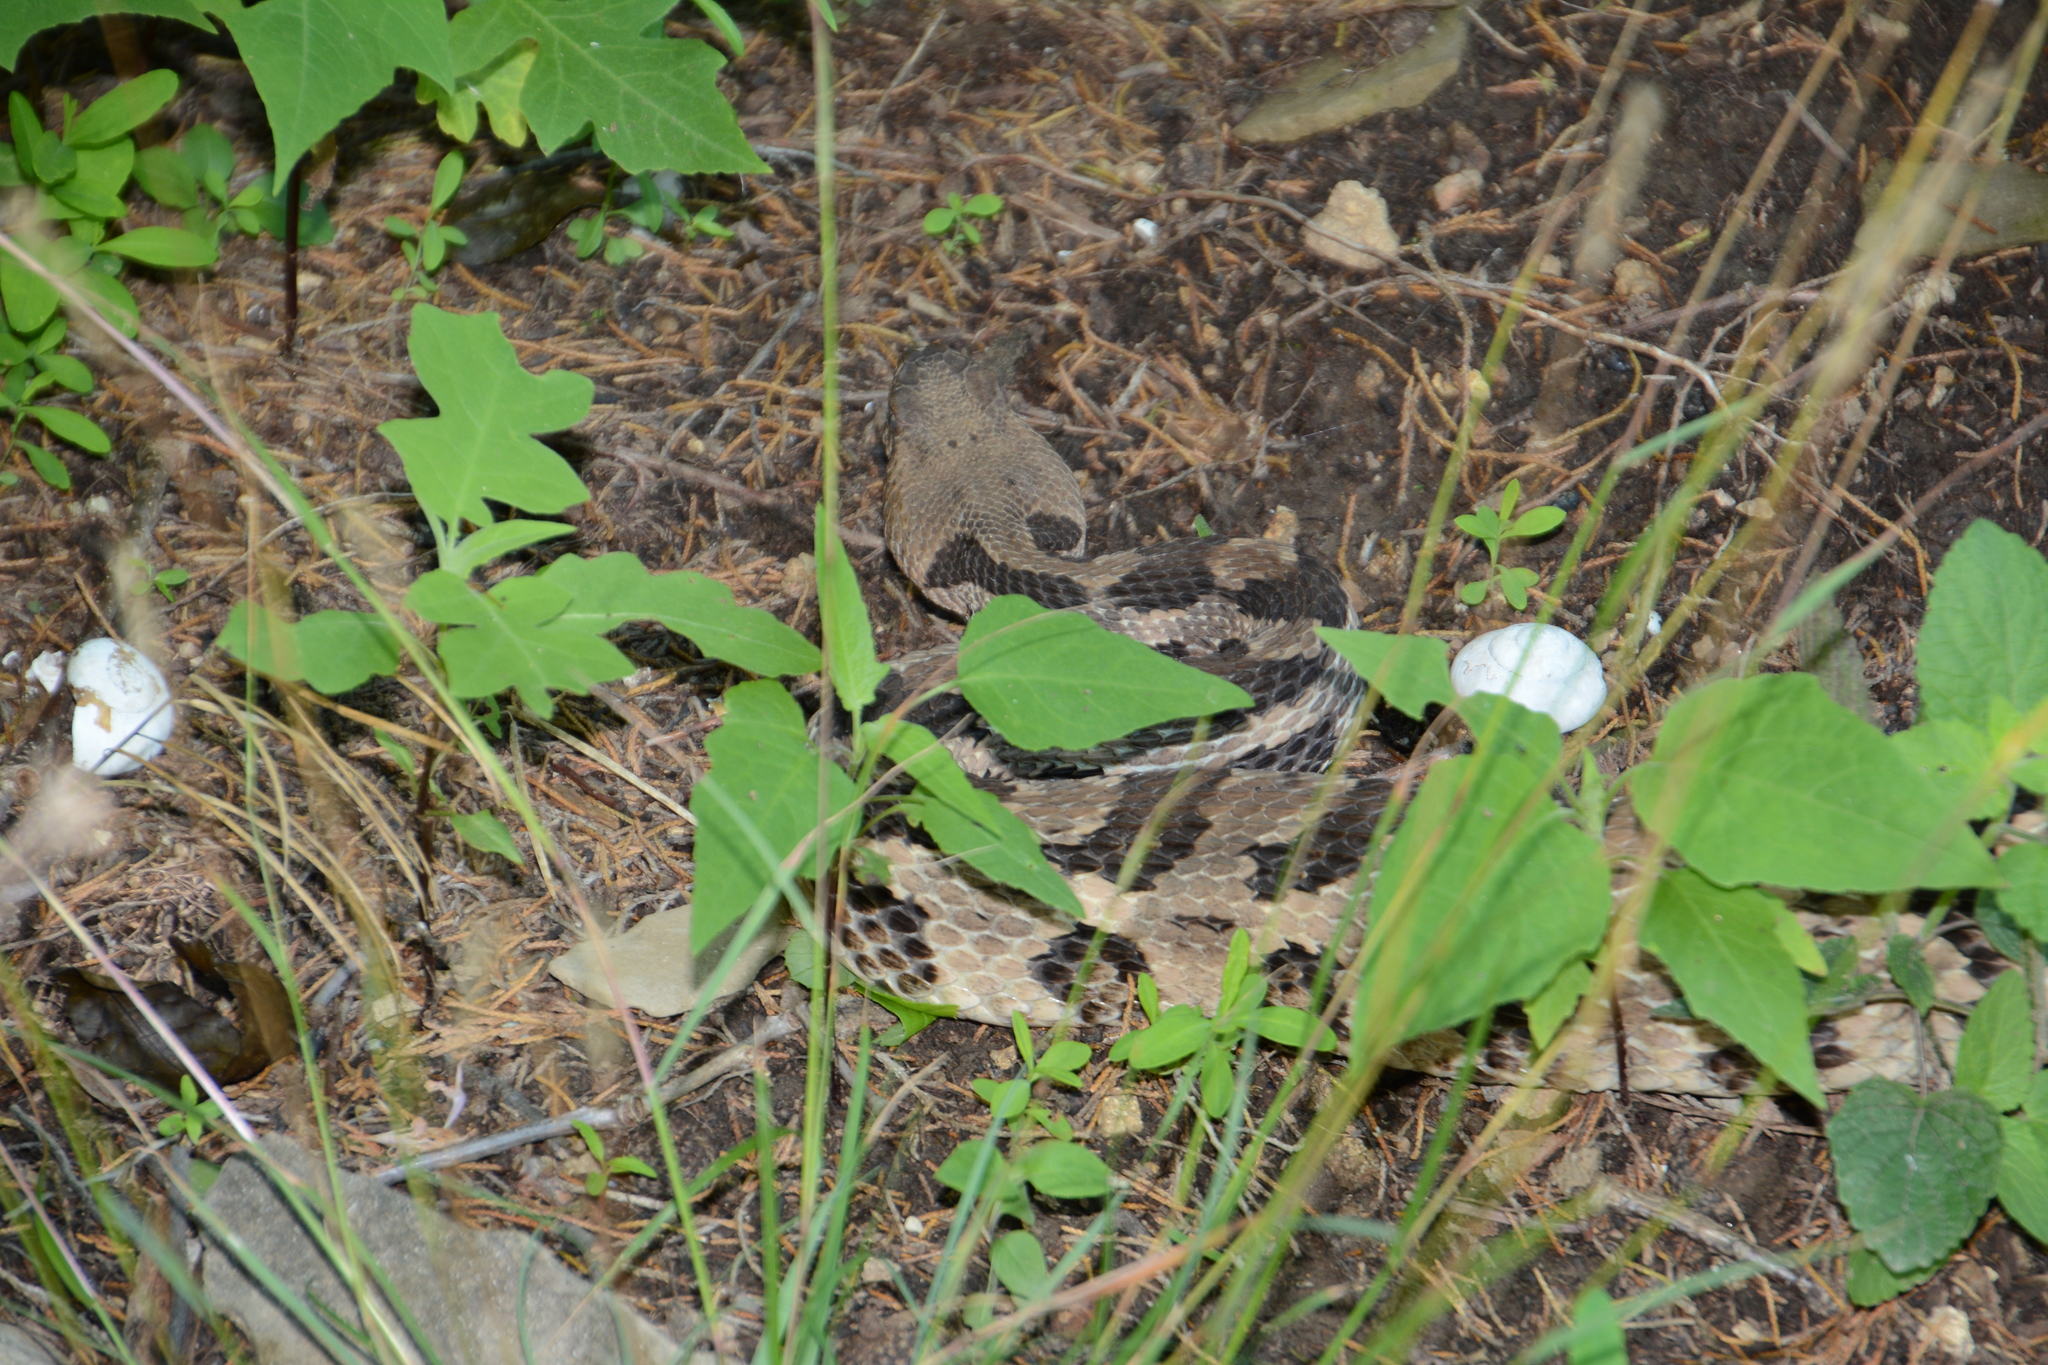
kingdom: Animalia
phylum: Chordata
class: Squamata
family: Viperidae
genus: Crotalus
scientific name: Crotalus horridus
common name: Timber rattlesnake
